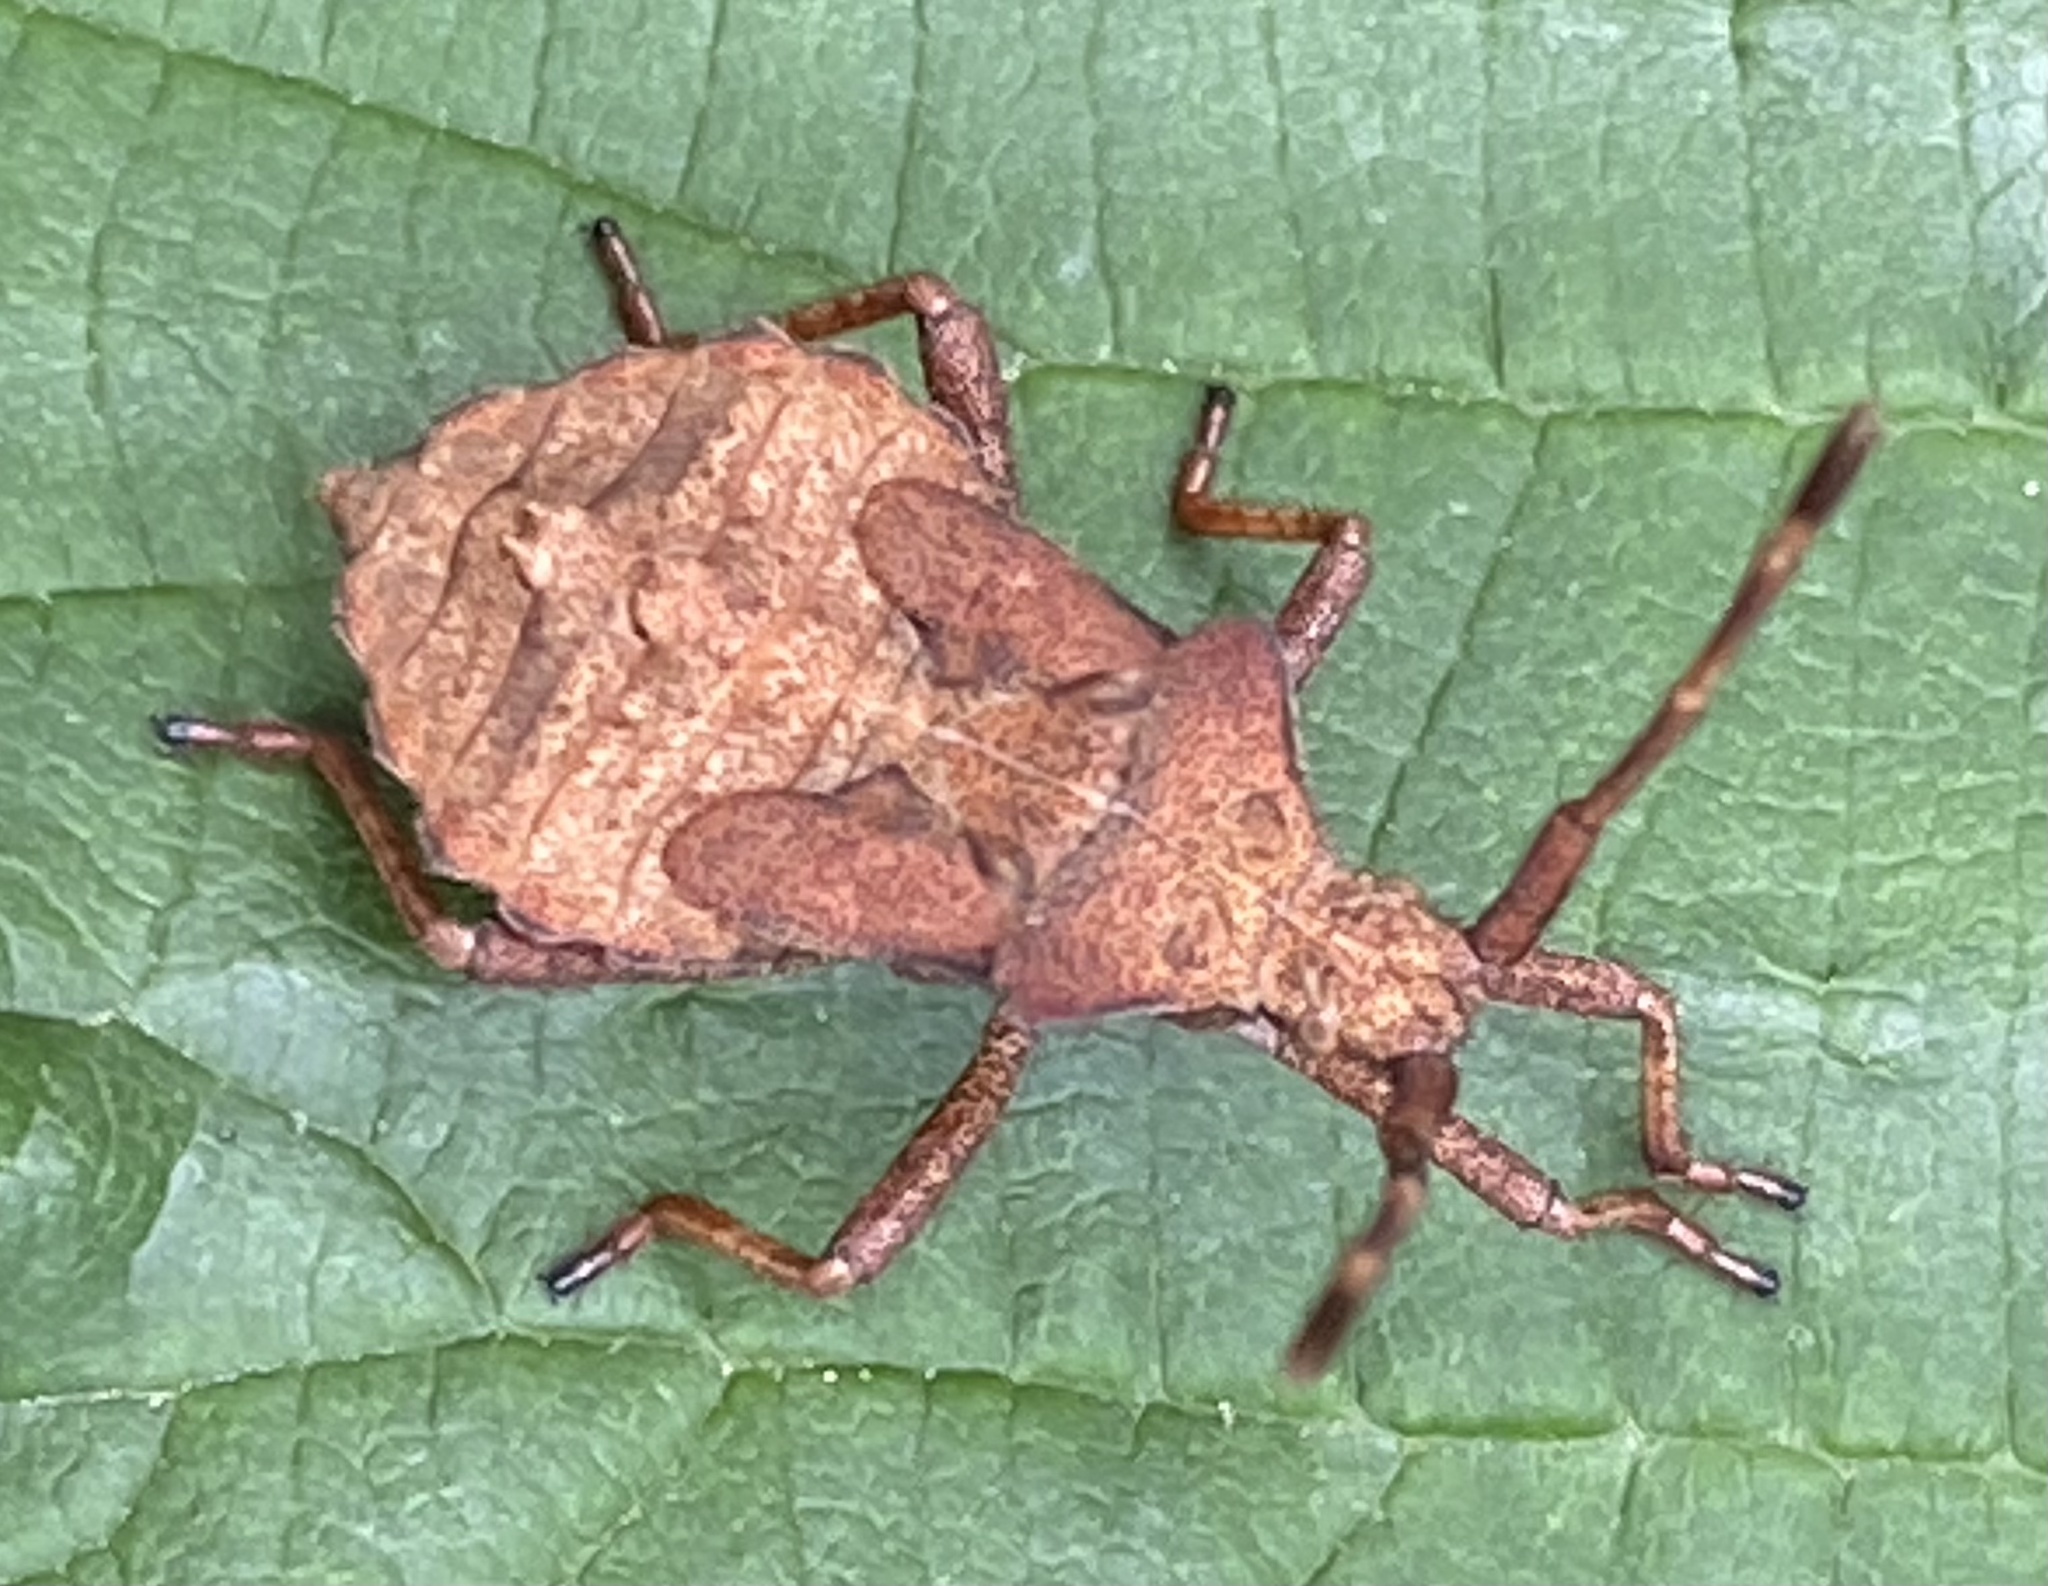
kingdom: Animalia
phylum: Arthropoda
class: Insecta
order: Hemiptera
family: Coreidae
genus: Coreus
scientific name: Coreus marginatus
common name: Dock bug
